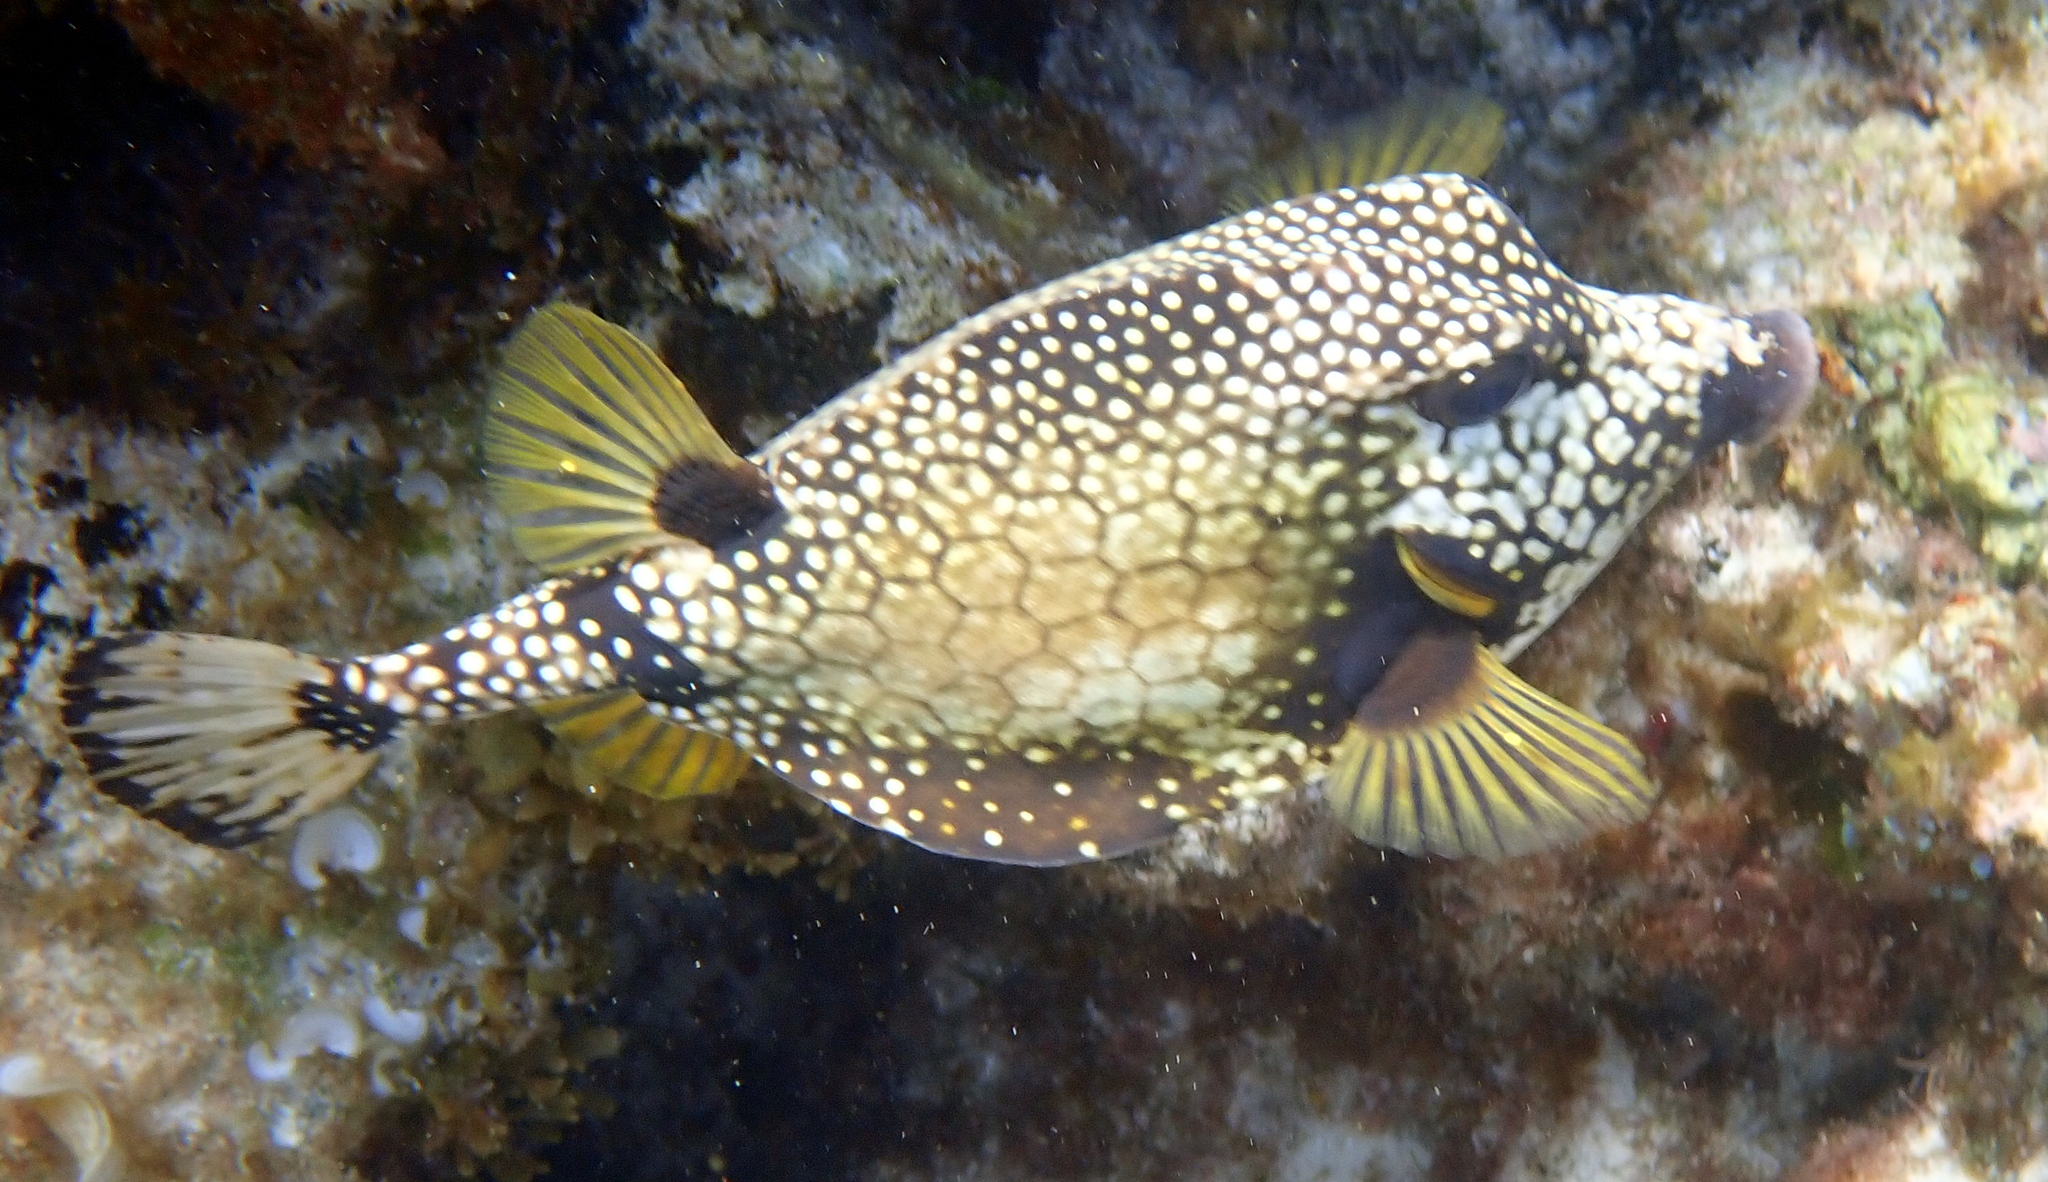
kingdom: Animalia
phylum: Chordata
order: Tetraodontiformes
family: Ostraciidae
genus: Lactophrys
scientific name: Lactophrys triqueter
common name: Smooth trunkfish
